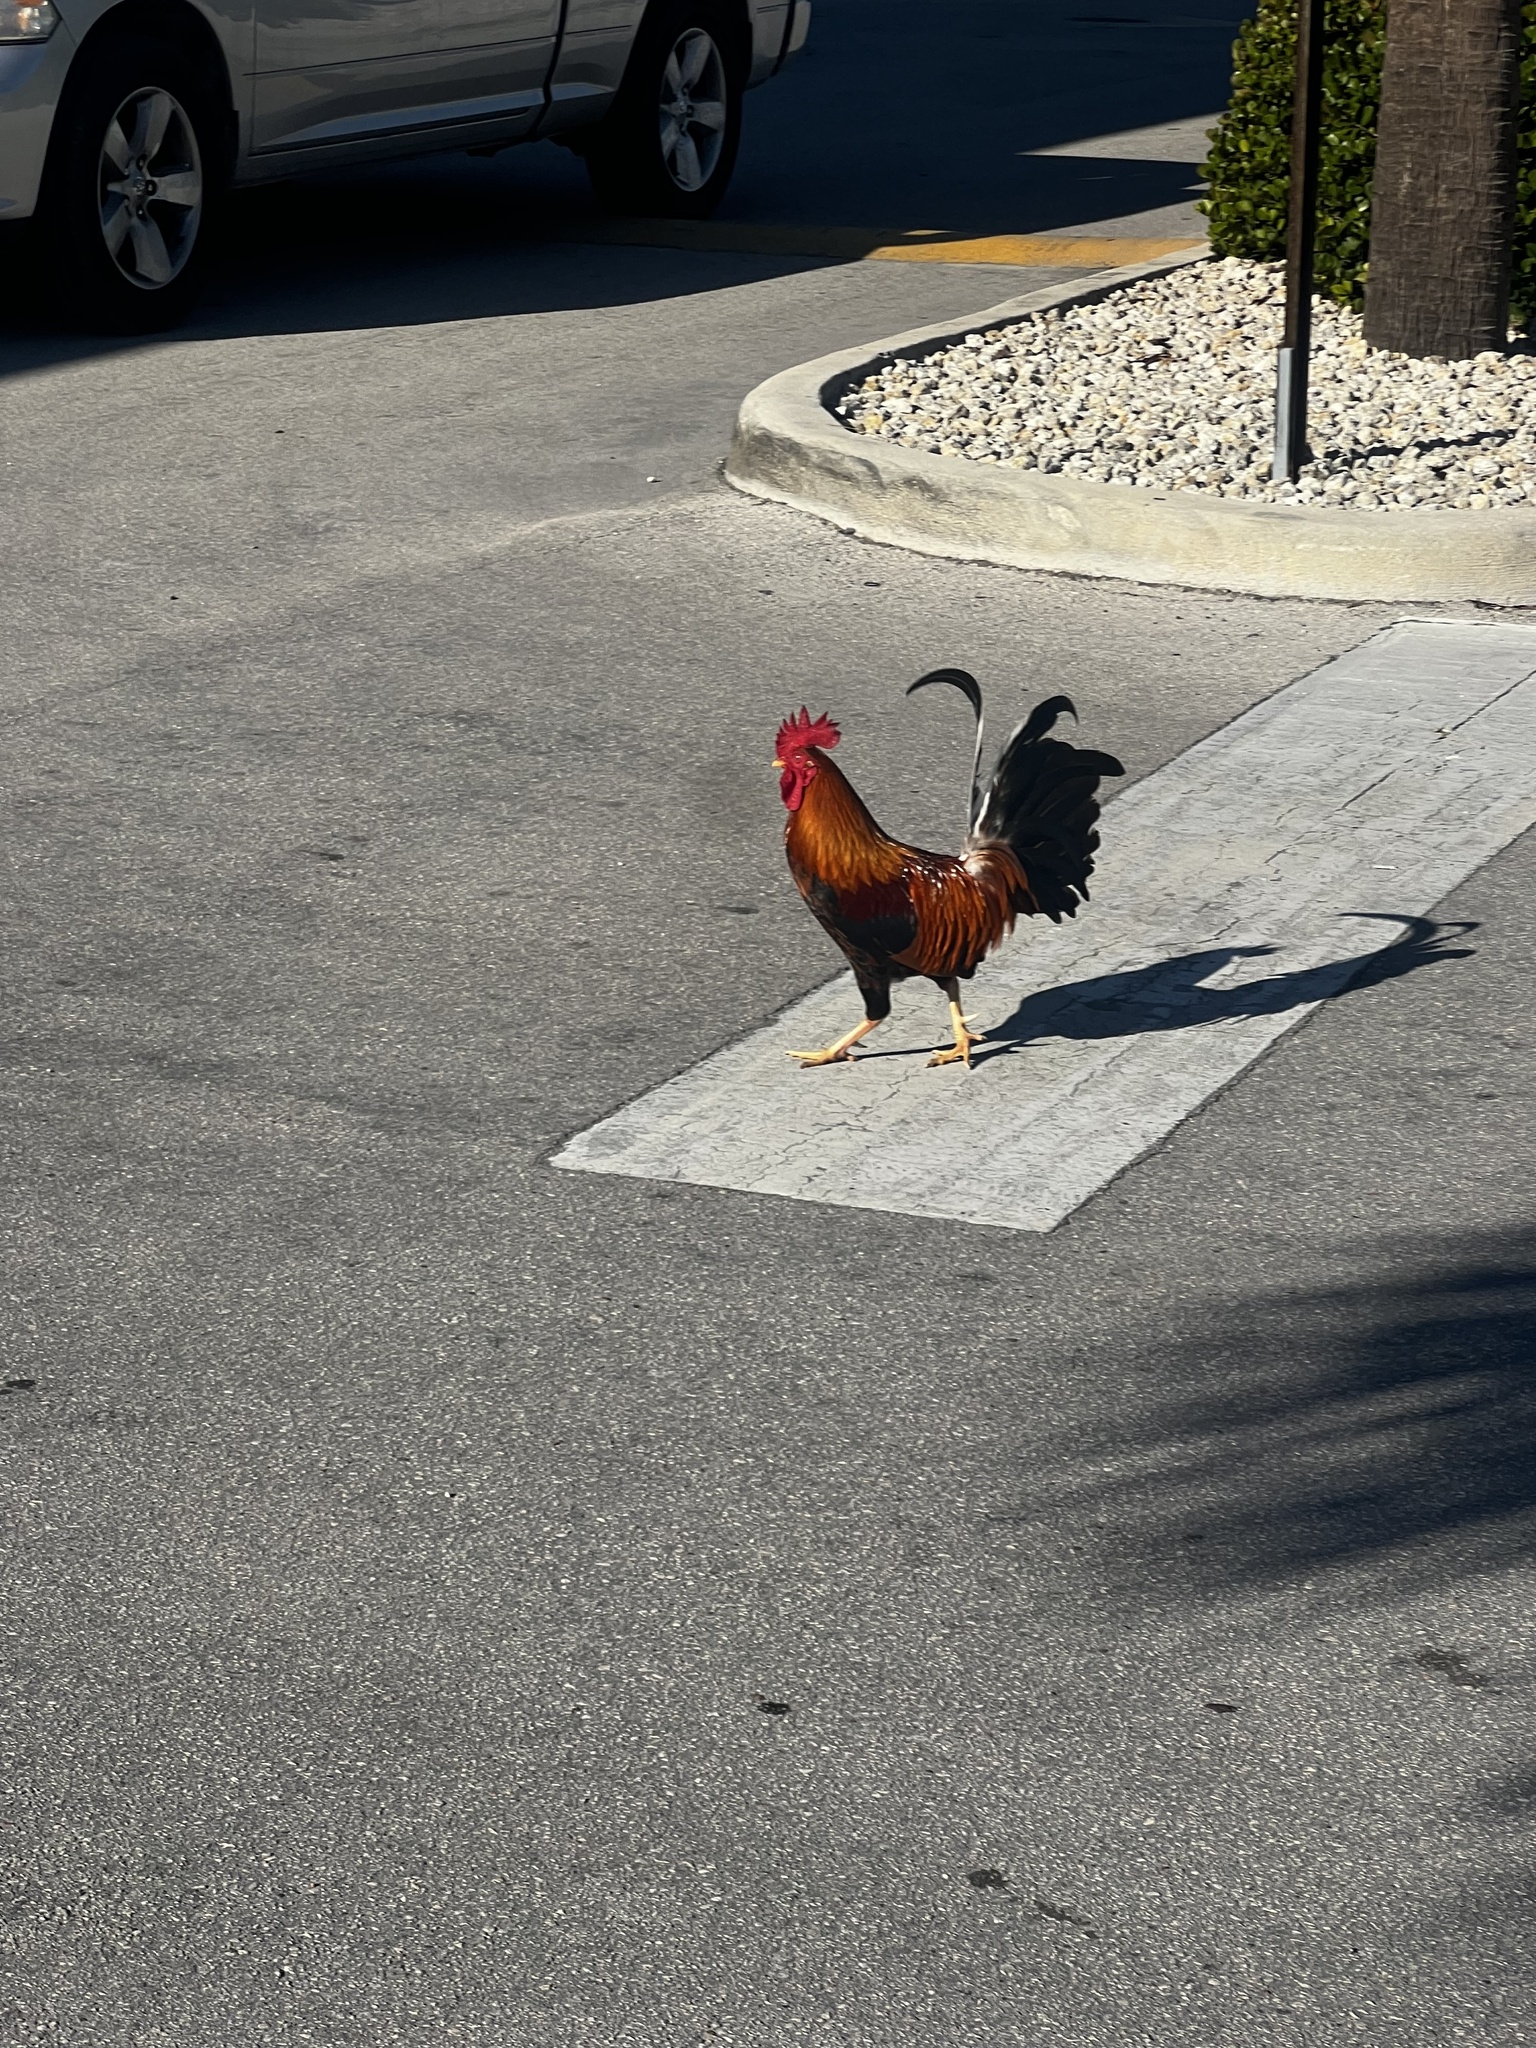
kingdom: Animalia
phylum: Chordata
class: Aves
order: Galliformes
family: Phasianidae
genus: Gallus
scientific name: Gallus gallus
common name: Red junglefowl
